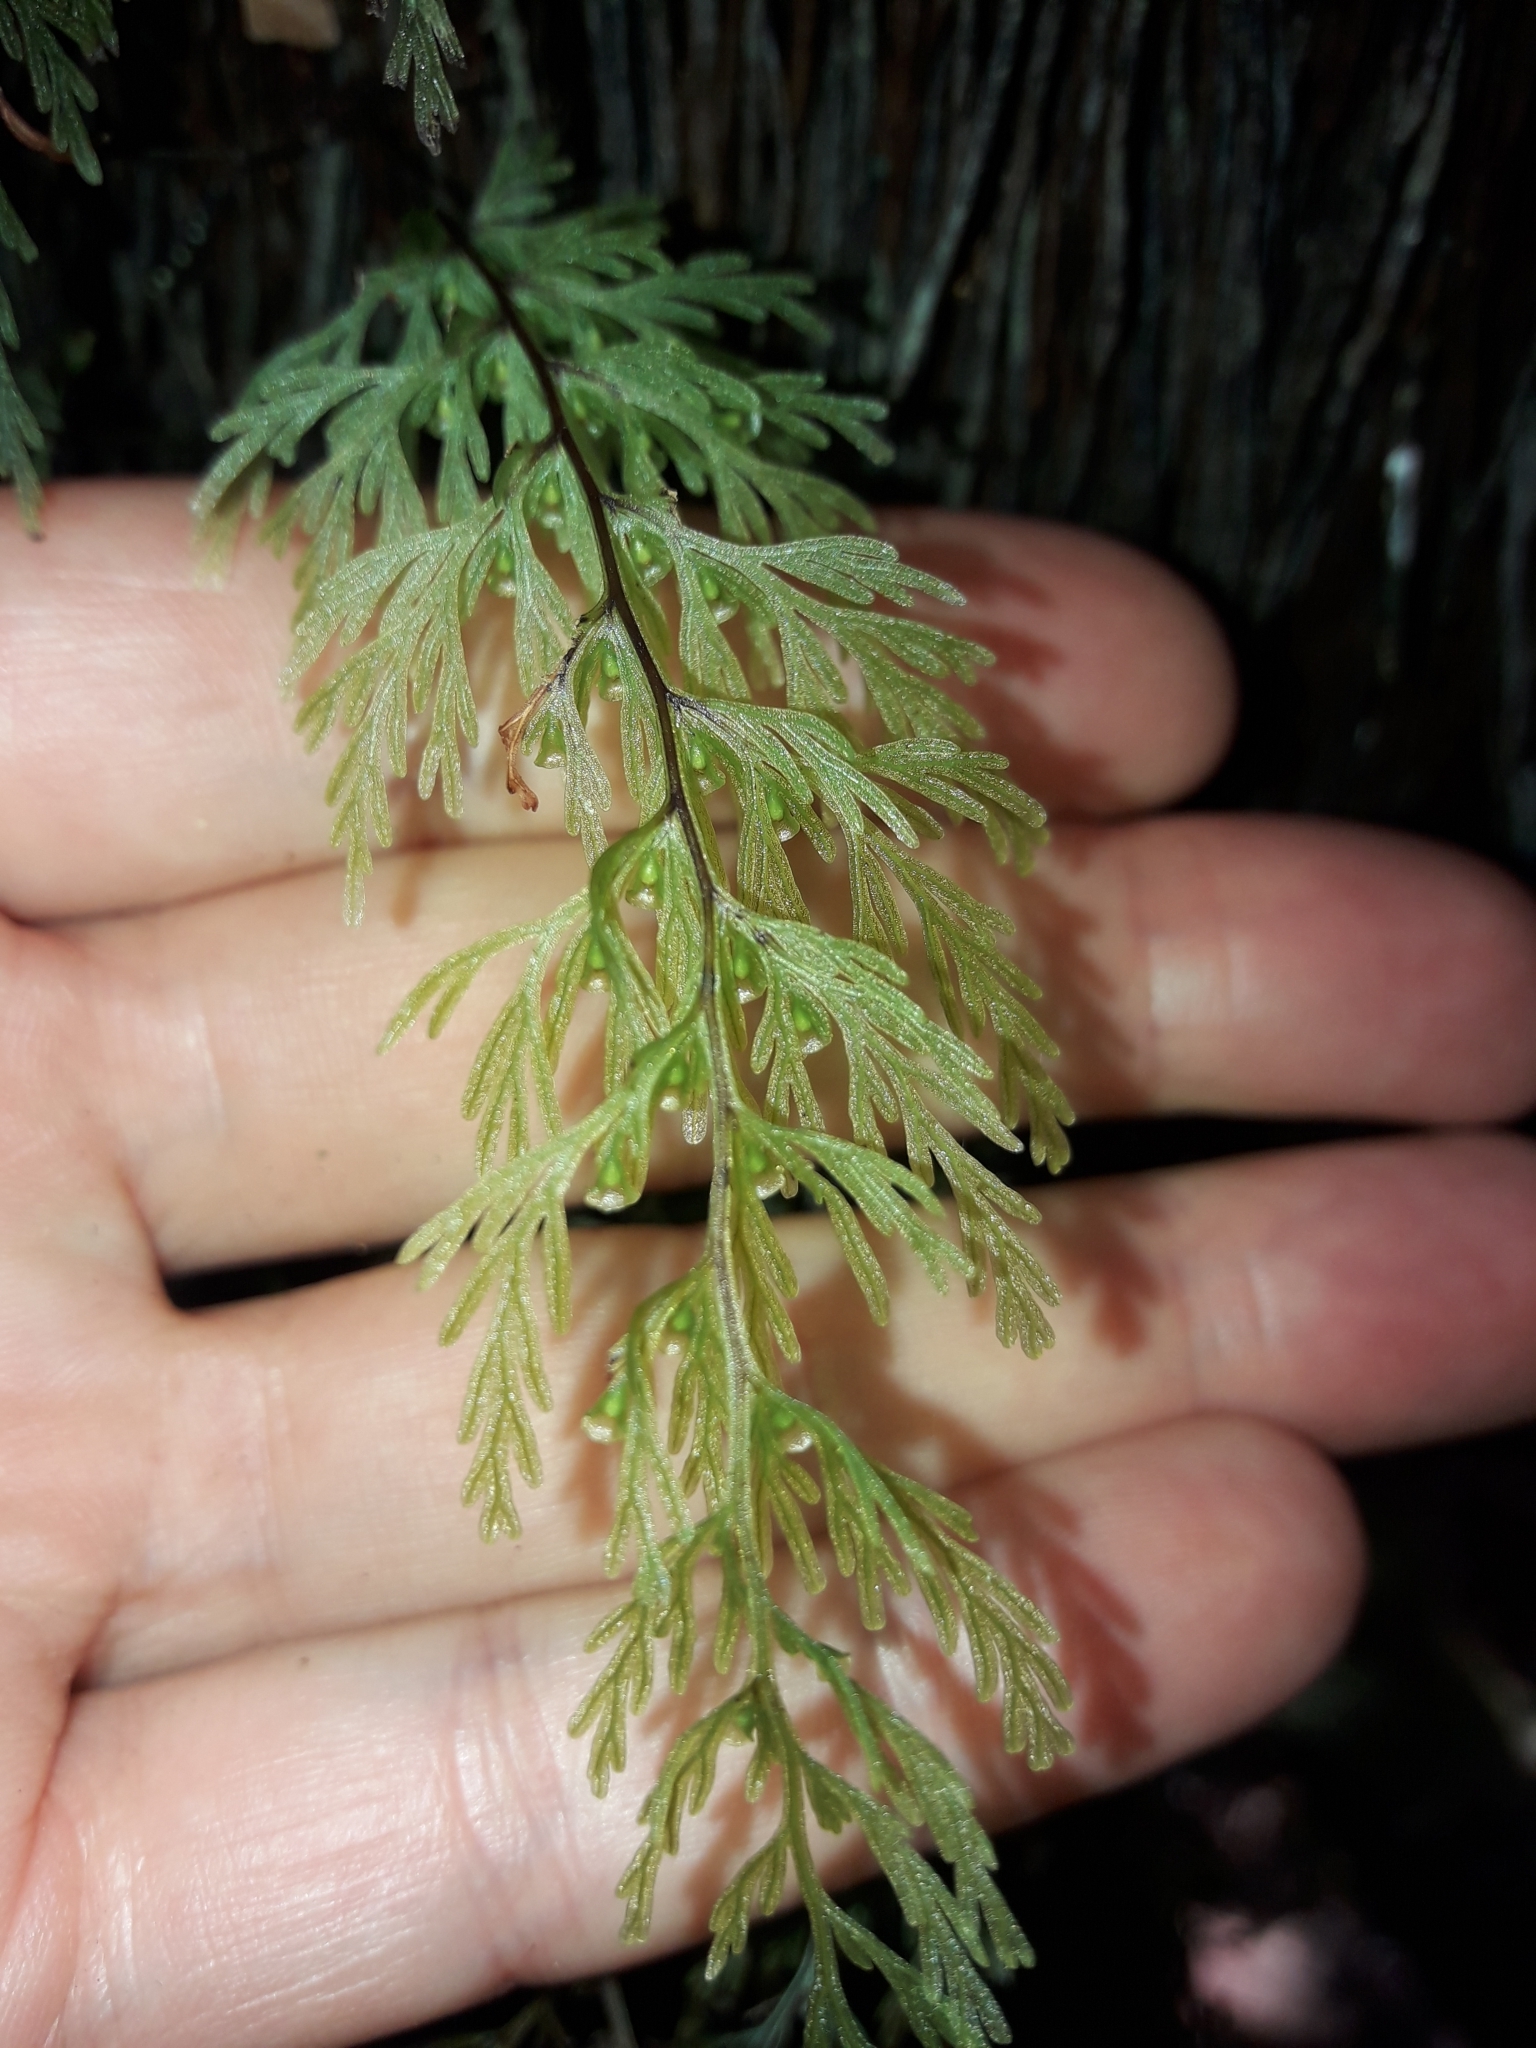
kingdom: Plantae
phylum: Tracheophyta
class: Polypodiopsida
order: Hymenophyllales
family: Hymenophyllaceae
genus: Abrodictyum
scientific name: Abrodictyum caudatum
